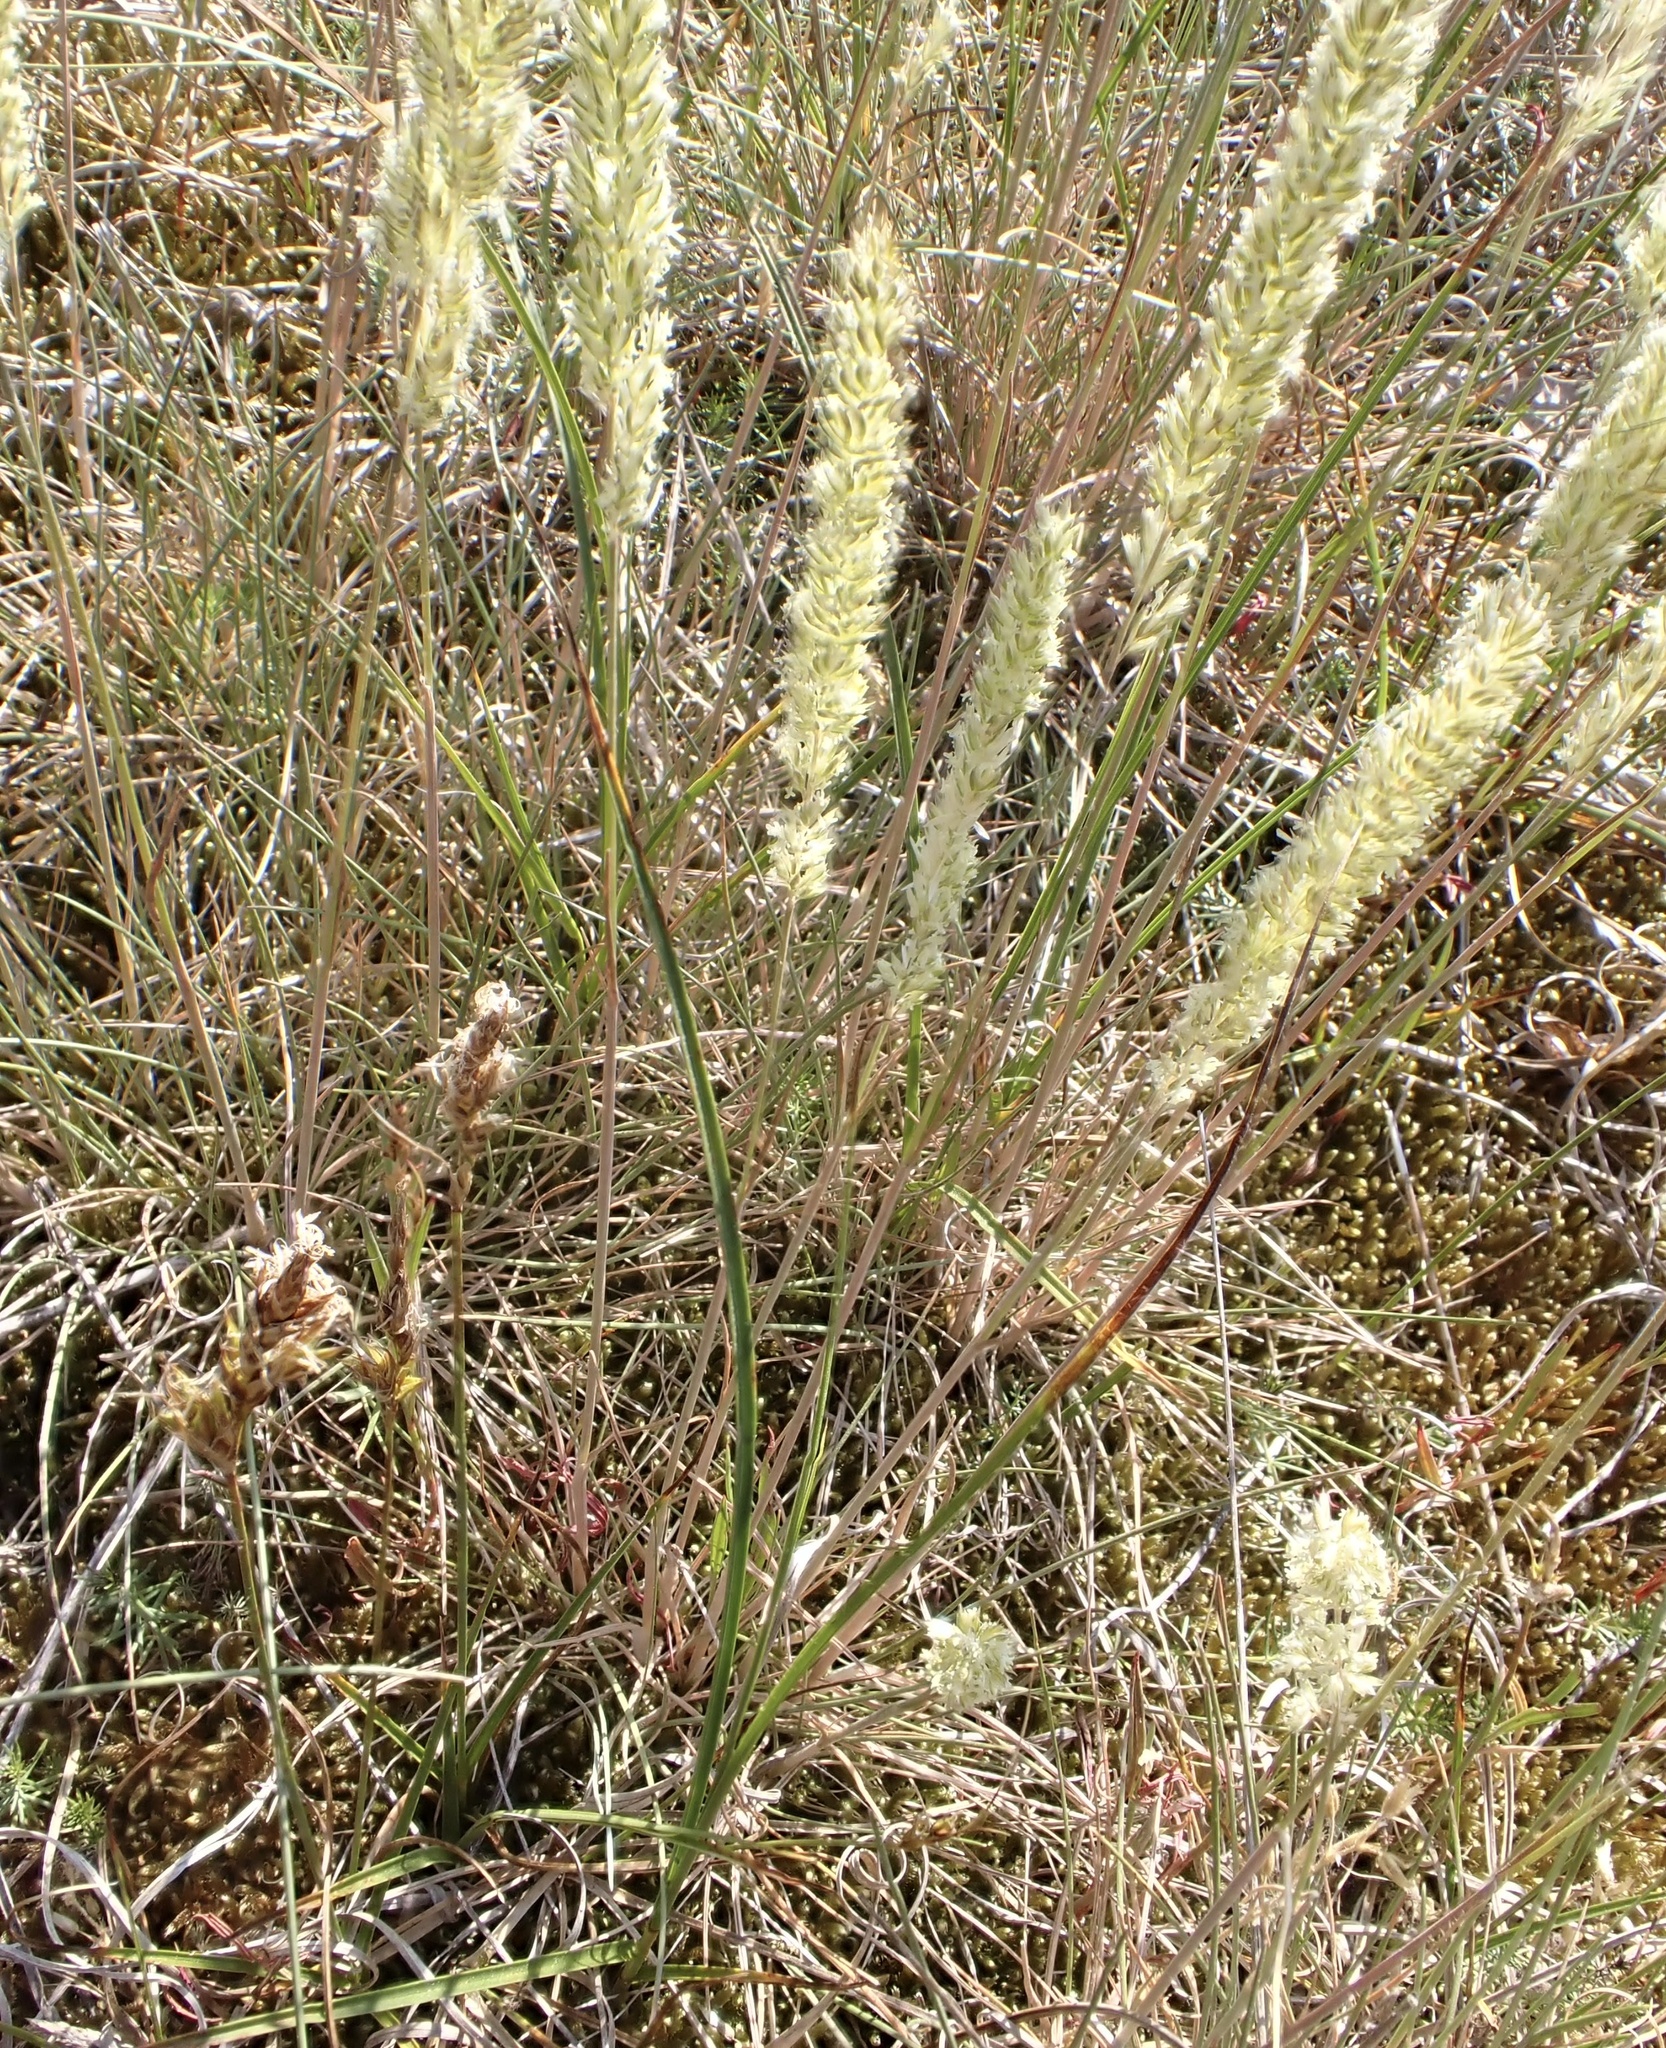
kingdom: Plantae
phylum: Tracheophyta
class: Liliopsida
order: Poales
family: Poaceae
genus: Koeleria
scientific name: Koeleria pyramidata
